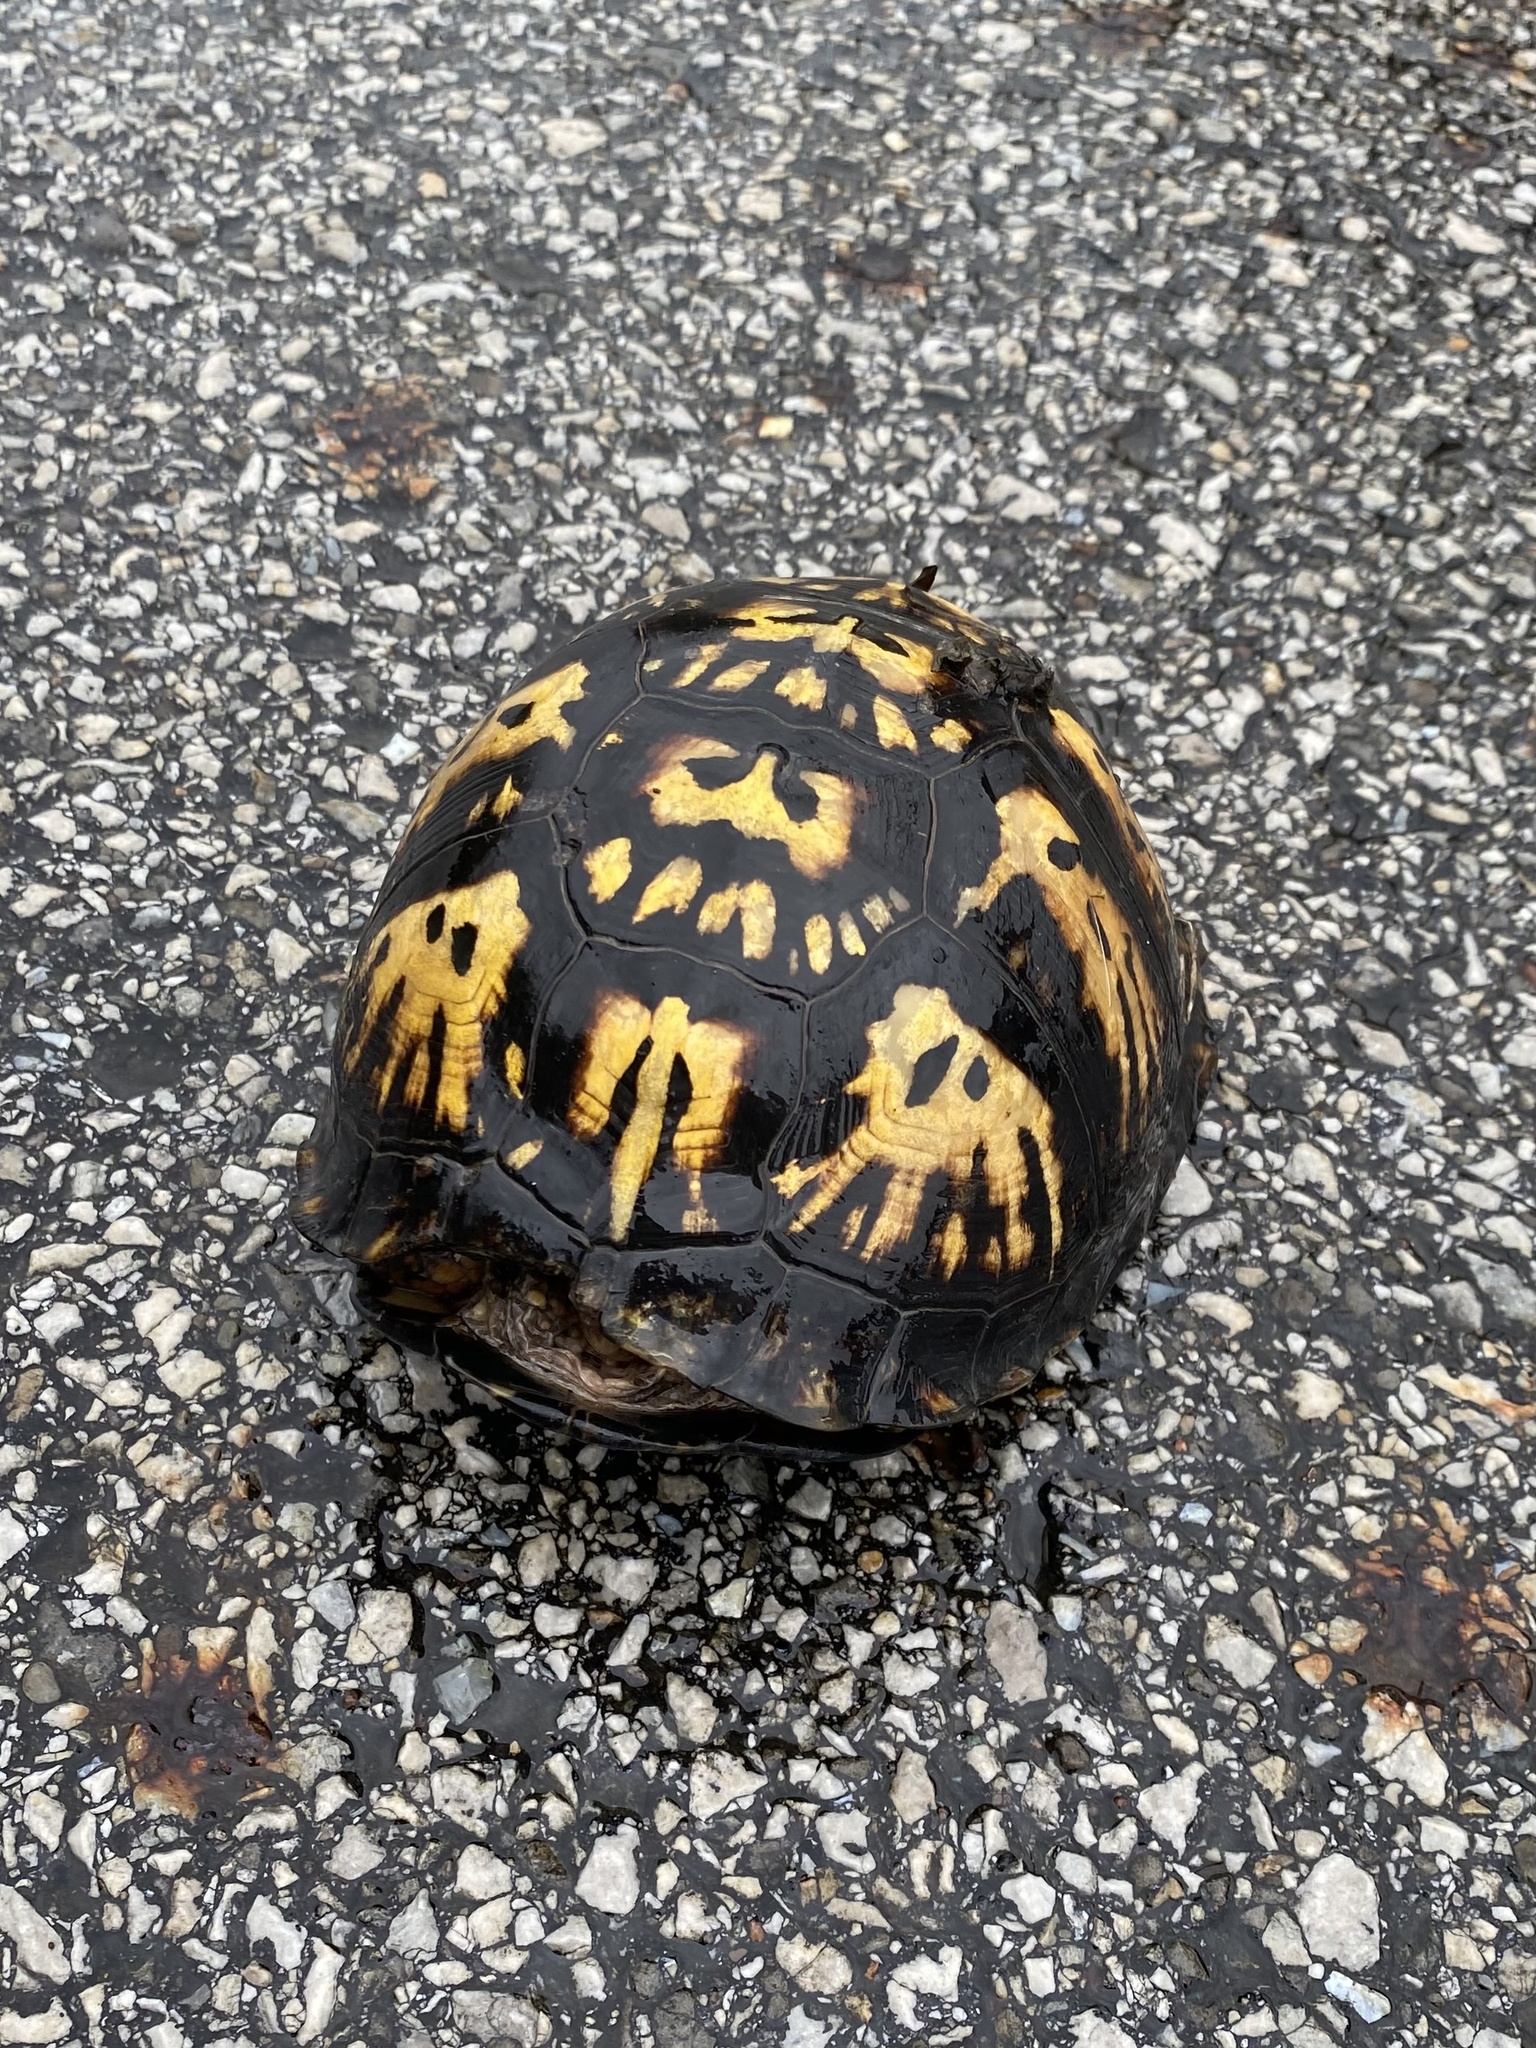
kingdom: Animalia
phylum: Chordata
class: Testudines
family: Emydidae
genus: Terrapene
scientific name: Terrapene carolina
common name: Common box turtle
